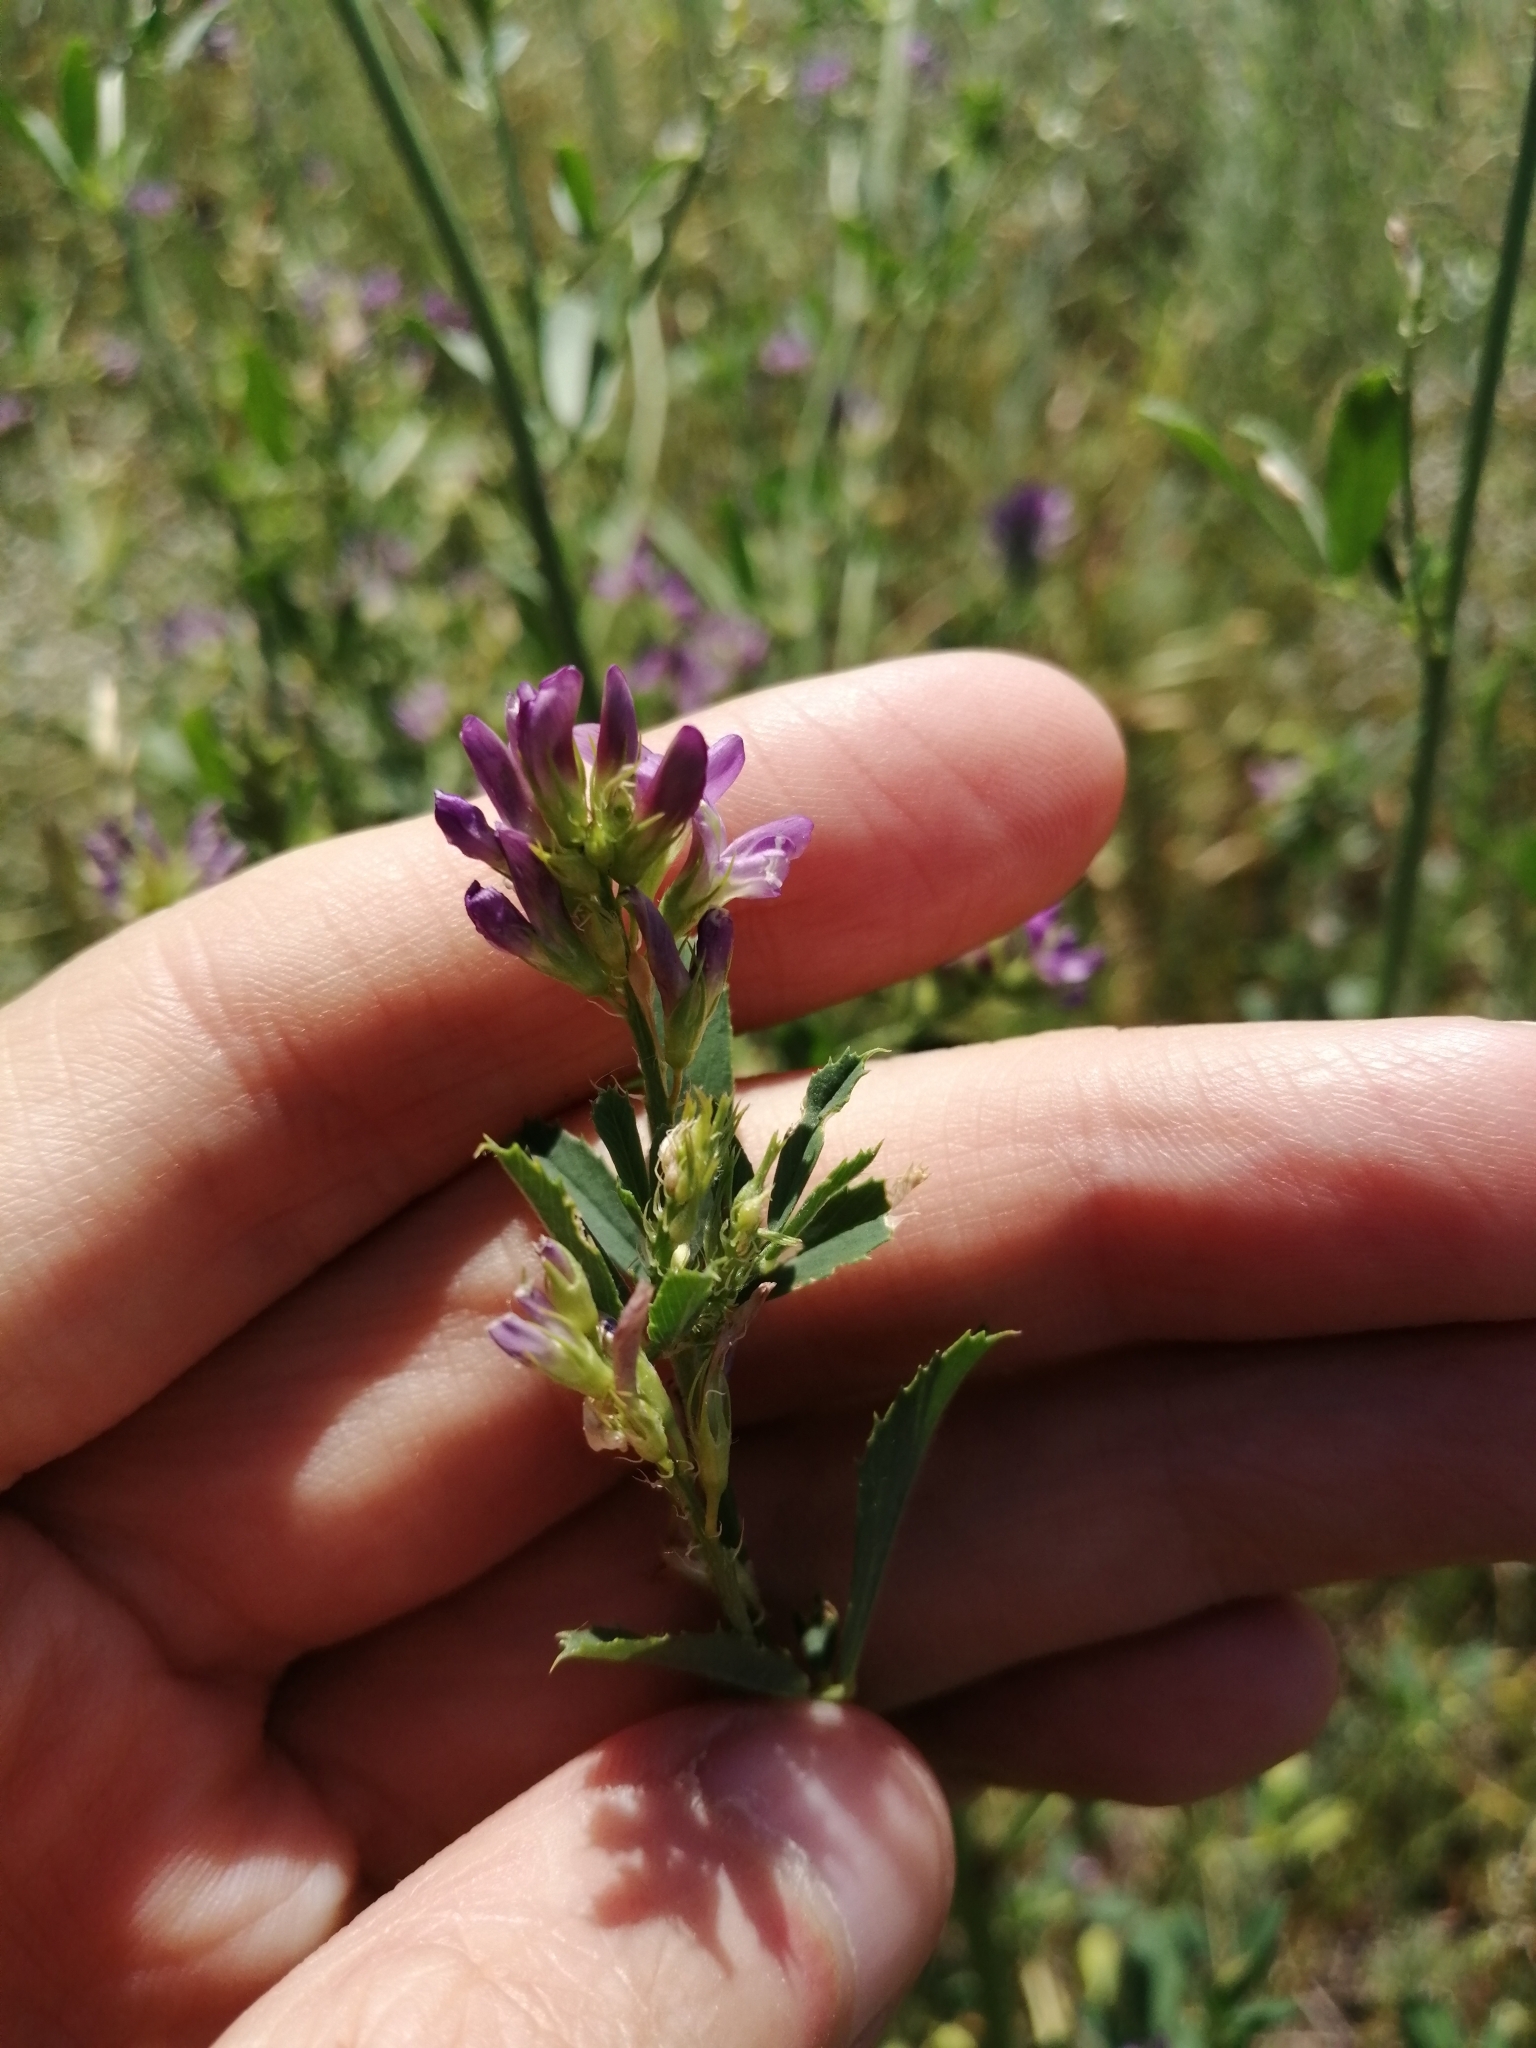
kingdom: Plantae
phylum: Tracheophyta
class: Magnoliopsida
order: Fabales
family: Fabaceae
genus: Medicago
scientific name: Medicago sativa
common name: Alfalfa
